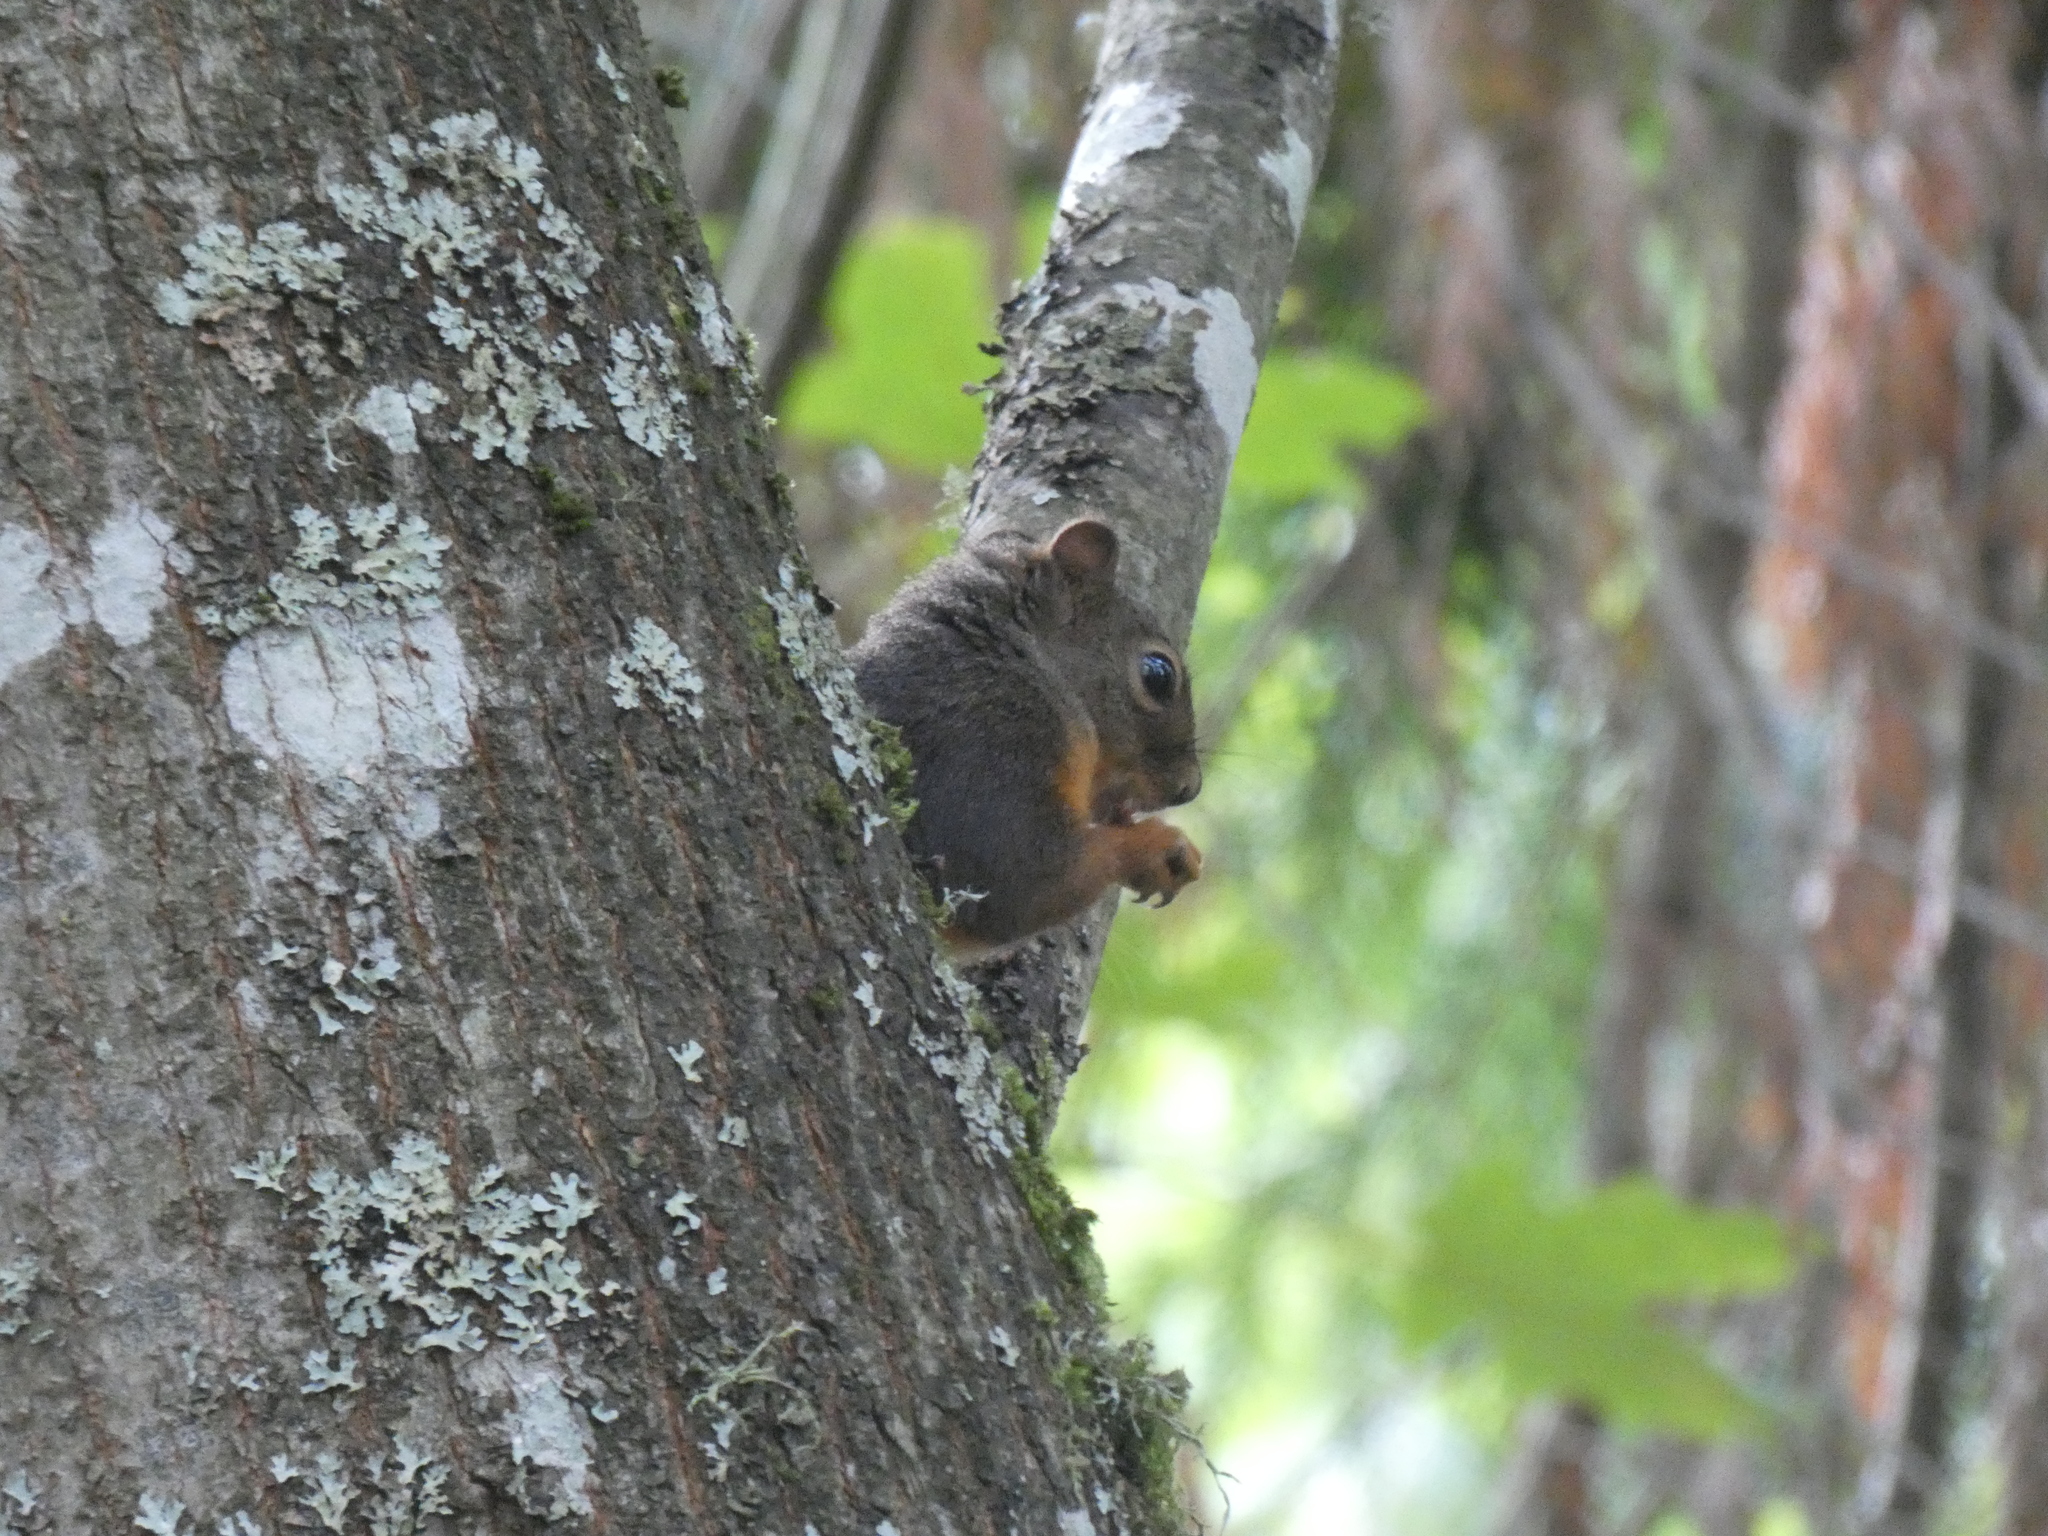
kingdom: Animalia
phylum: Chordata
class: Mammalia
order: Rodentia
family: Sciuridae
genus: Tamiasciurus
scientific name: Tamiasciurus douglasii
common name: Douglas's squirrel
